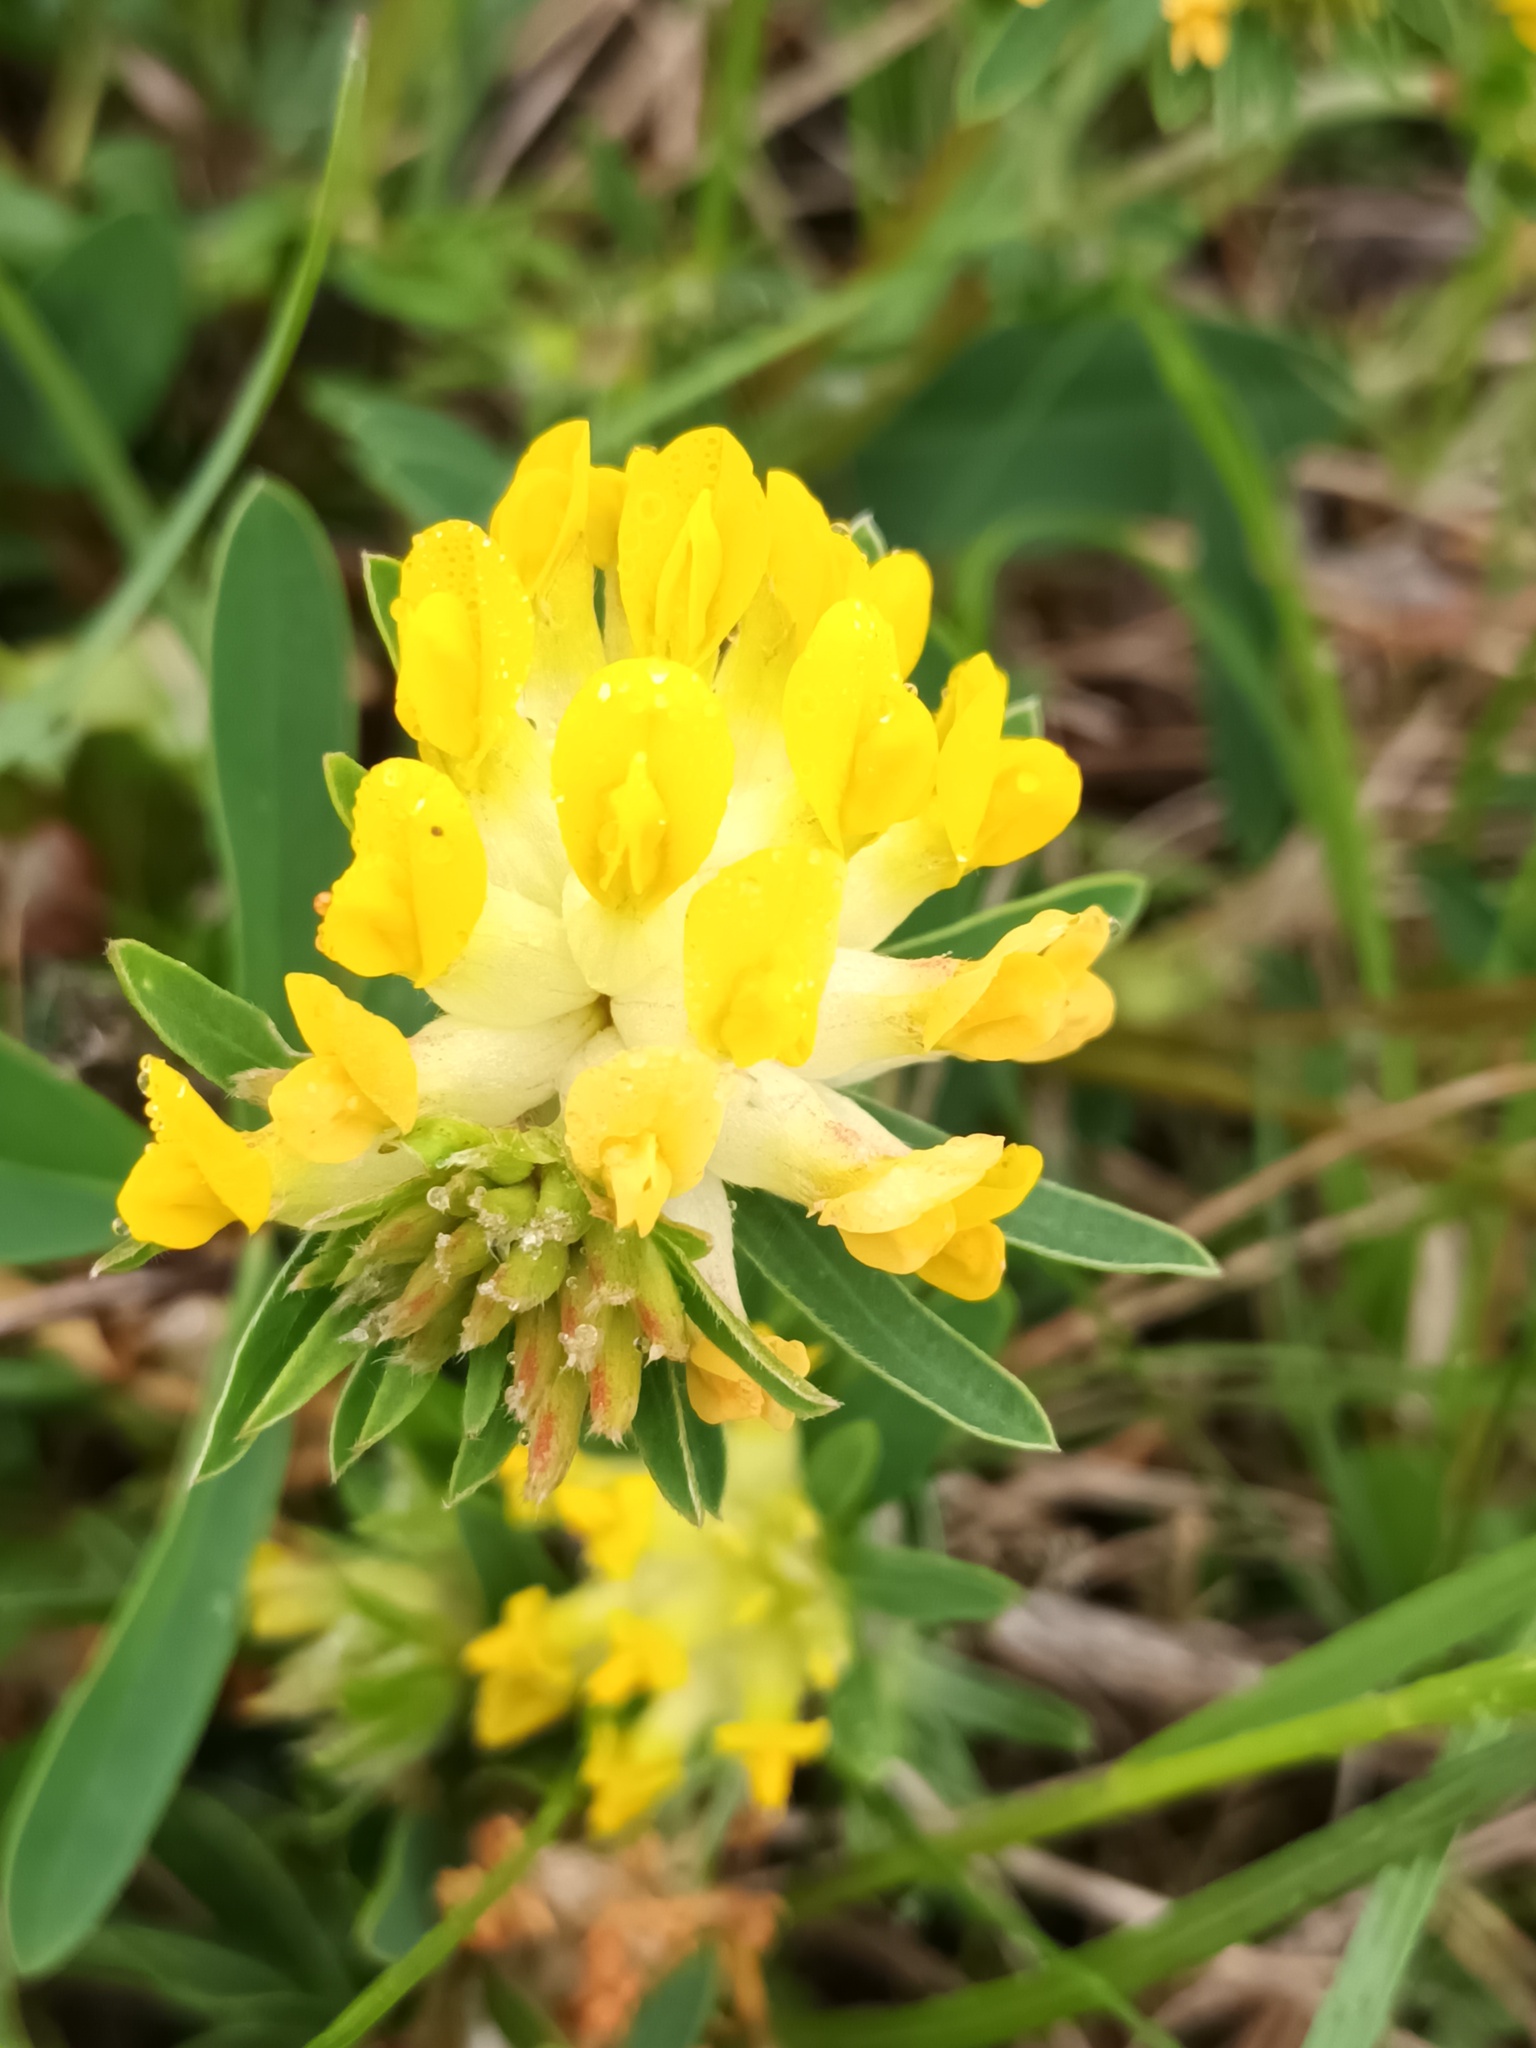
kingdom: Plantae
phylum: Tracheophyta
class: Magnoliopsida
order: Fabales
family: Fabaceae
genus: Anthyllis
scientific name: Anthyllis vulneraria
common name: Kidney vetch
